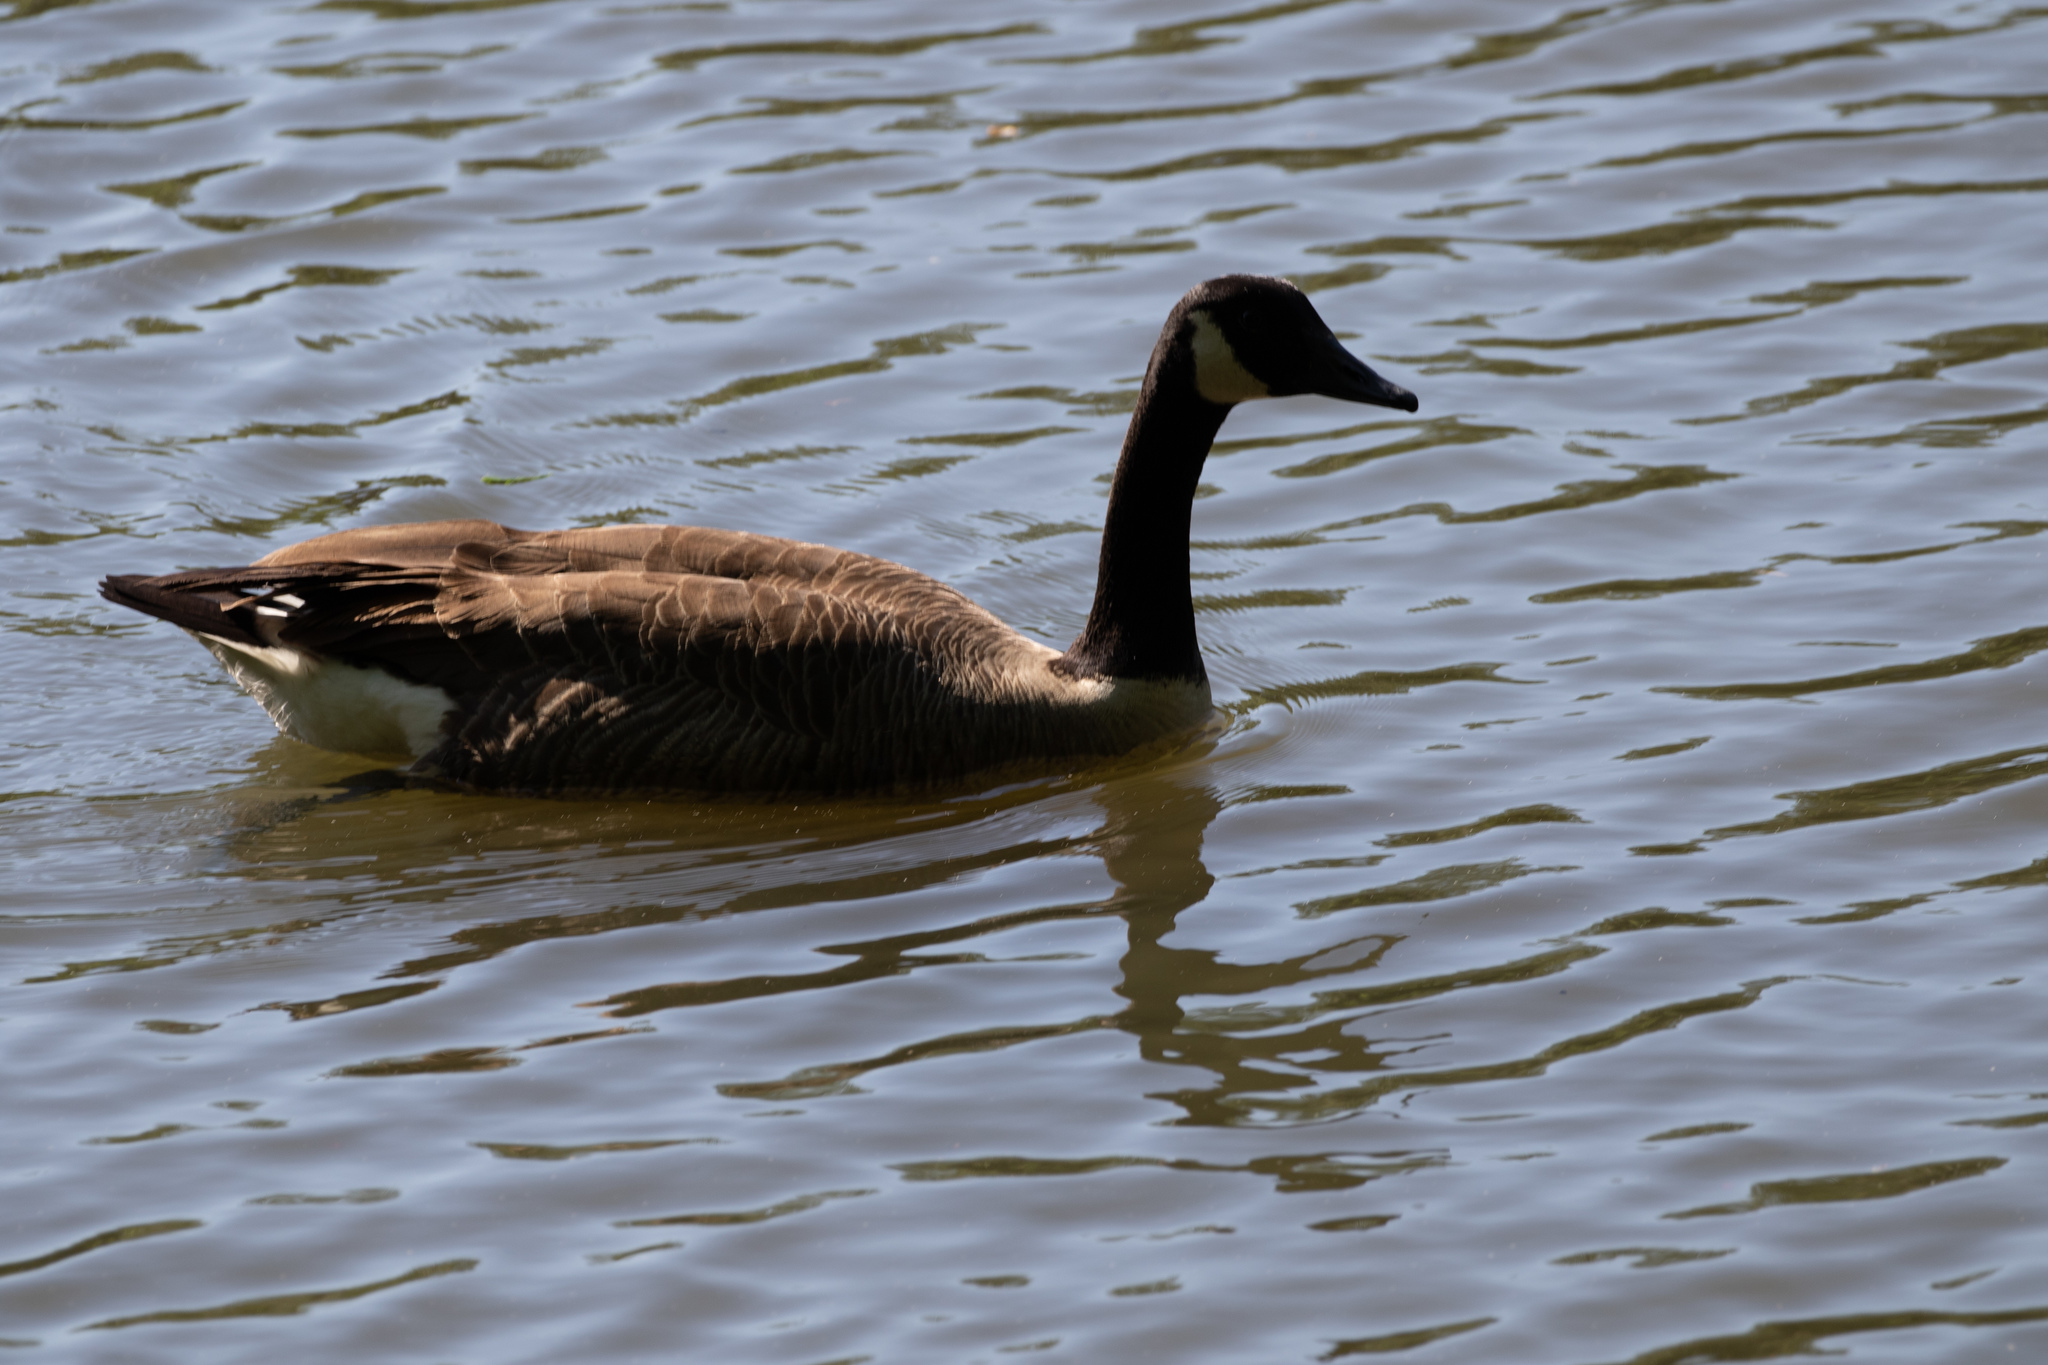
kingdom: Animalia
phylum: Chordata
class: Aves
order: Anseriformes
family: Anatidae
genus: Branta
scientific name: Branta canadensis
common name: Canada goose
